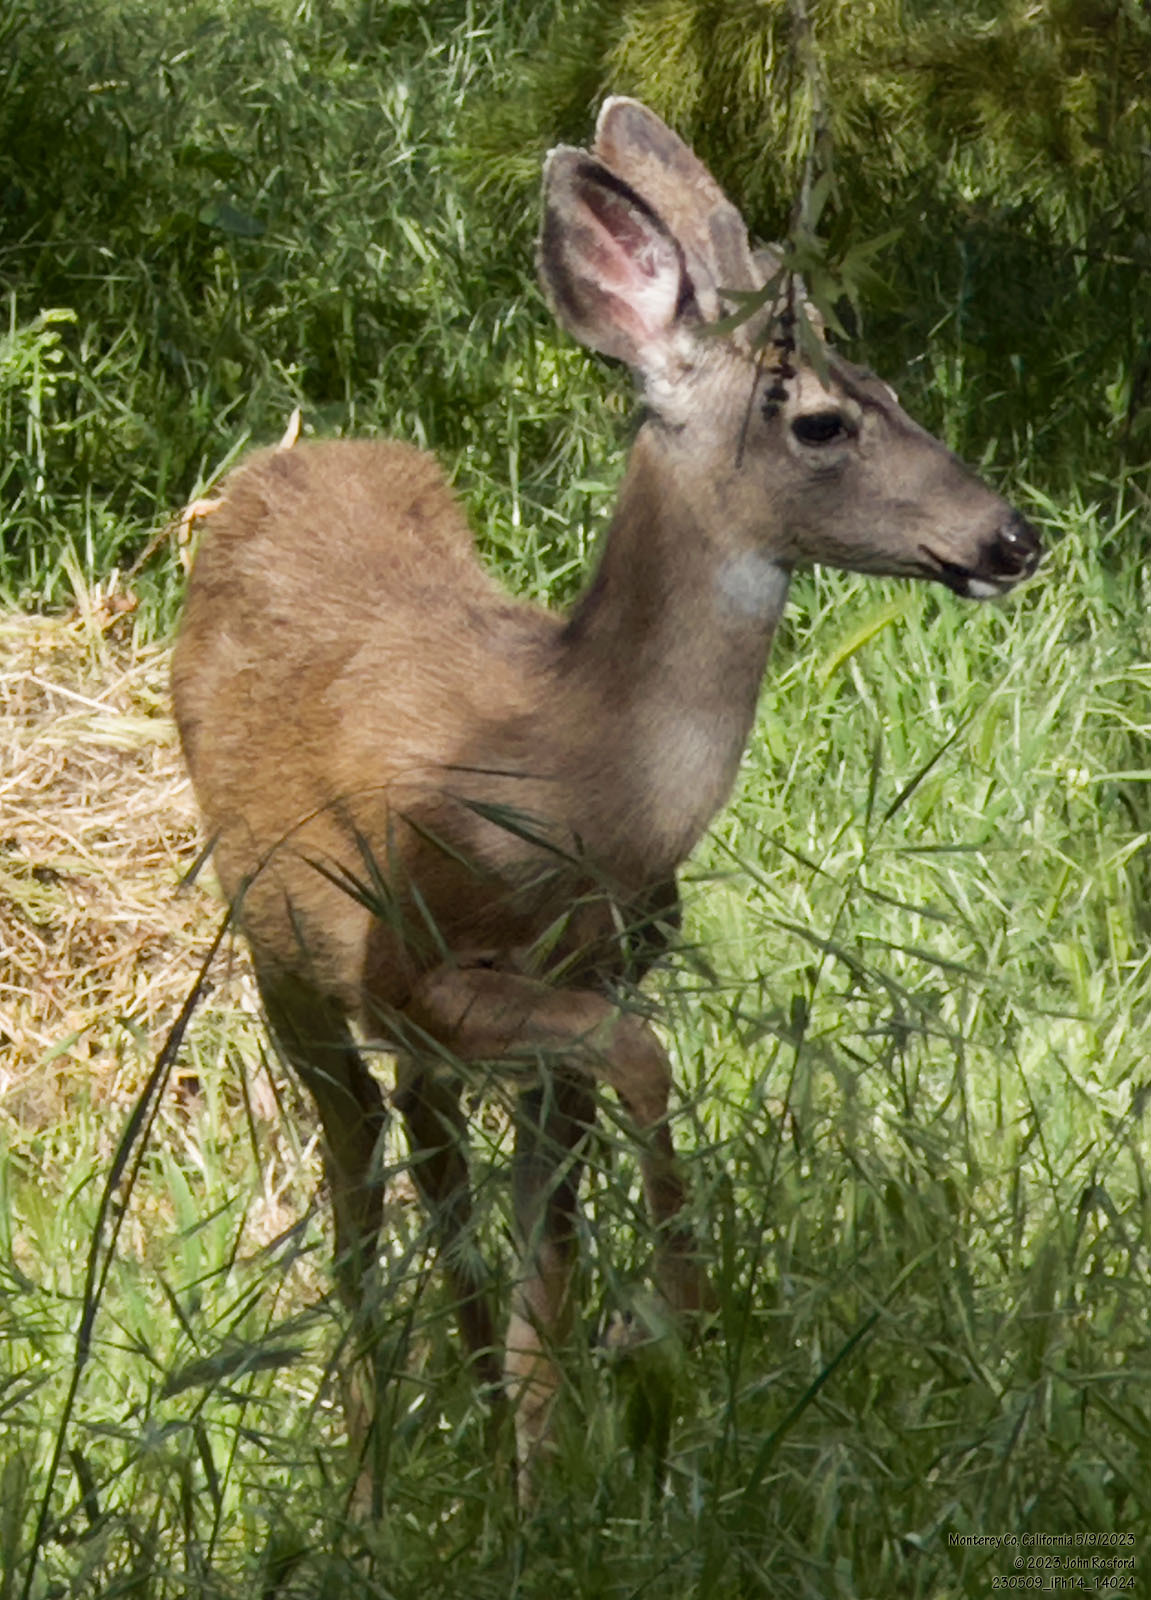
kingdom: Animalia
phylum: Chordata
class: Mammalia
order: Artiodactyla
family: Cervidae
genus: Odocoileus
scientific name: Odocoileus hemionus
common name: Mule deer
